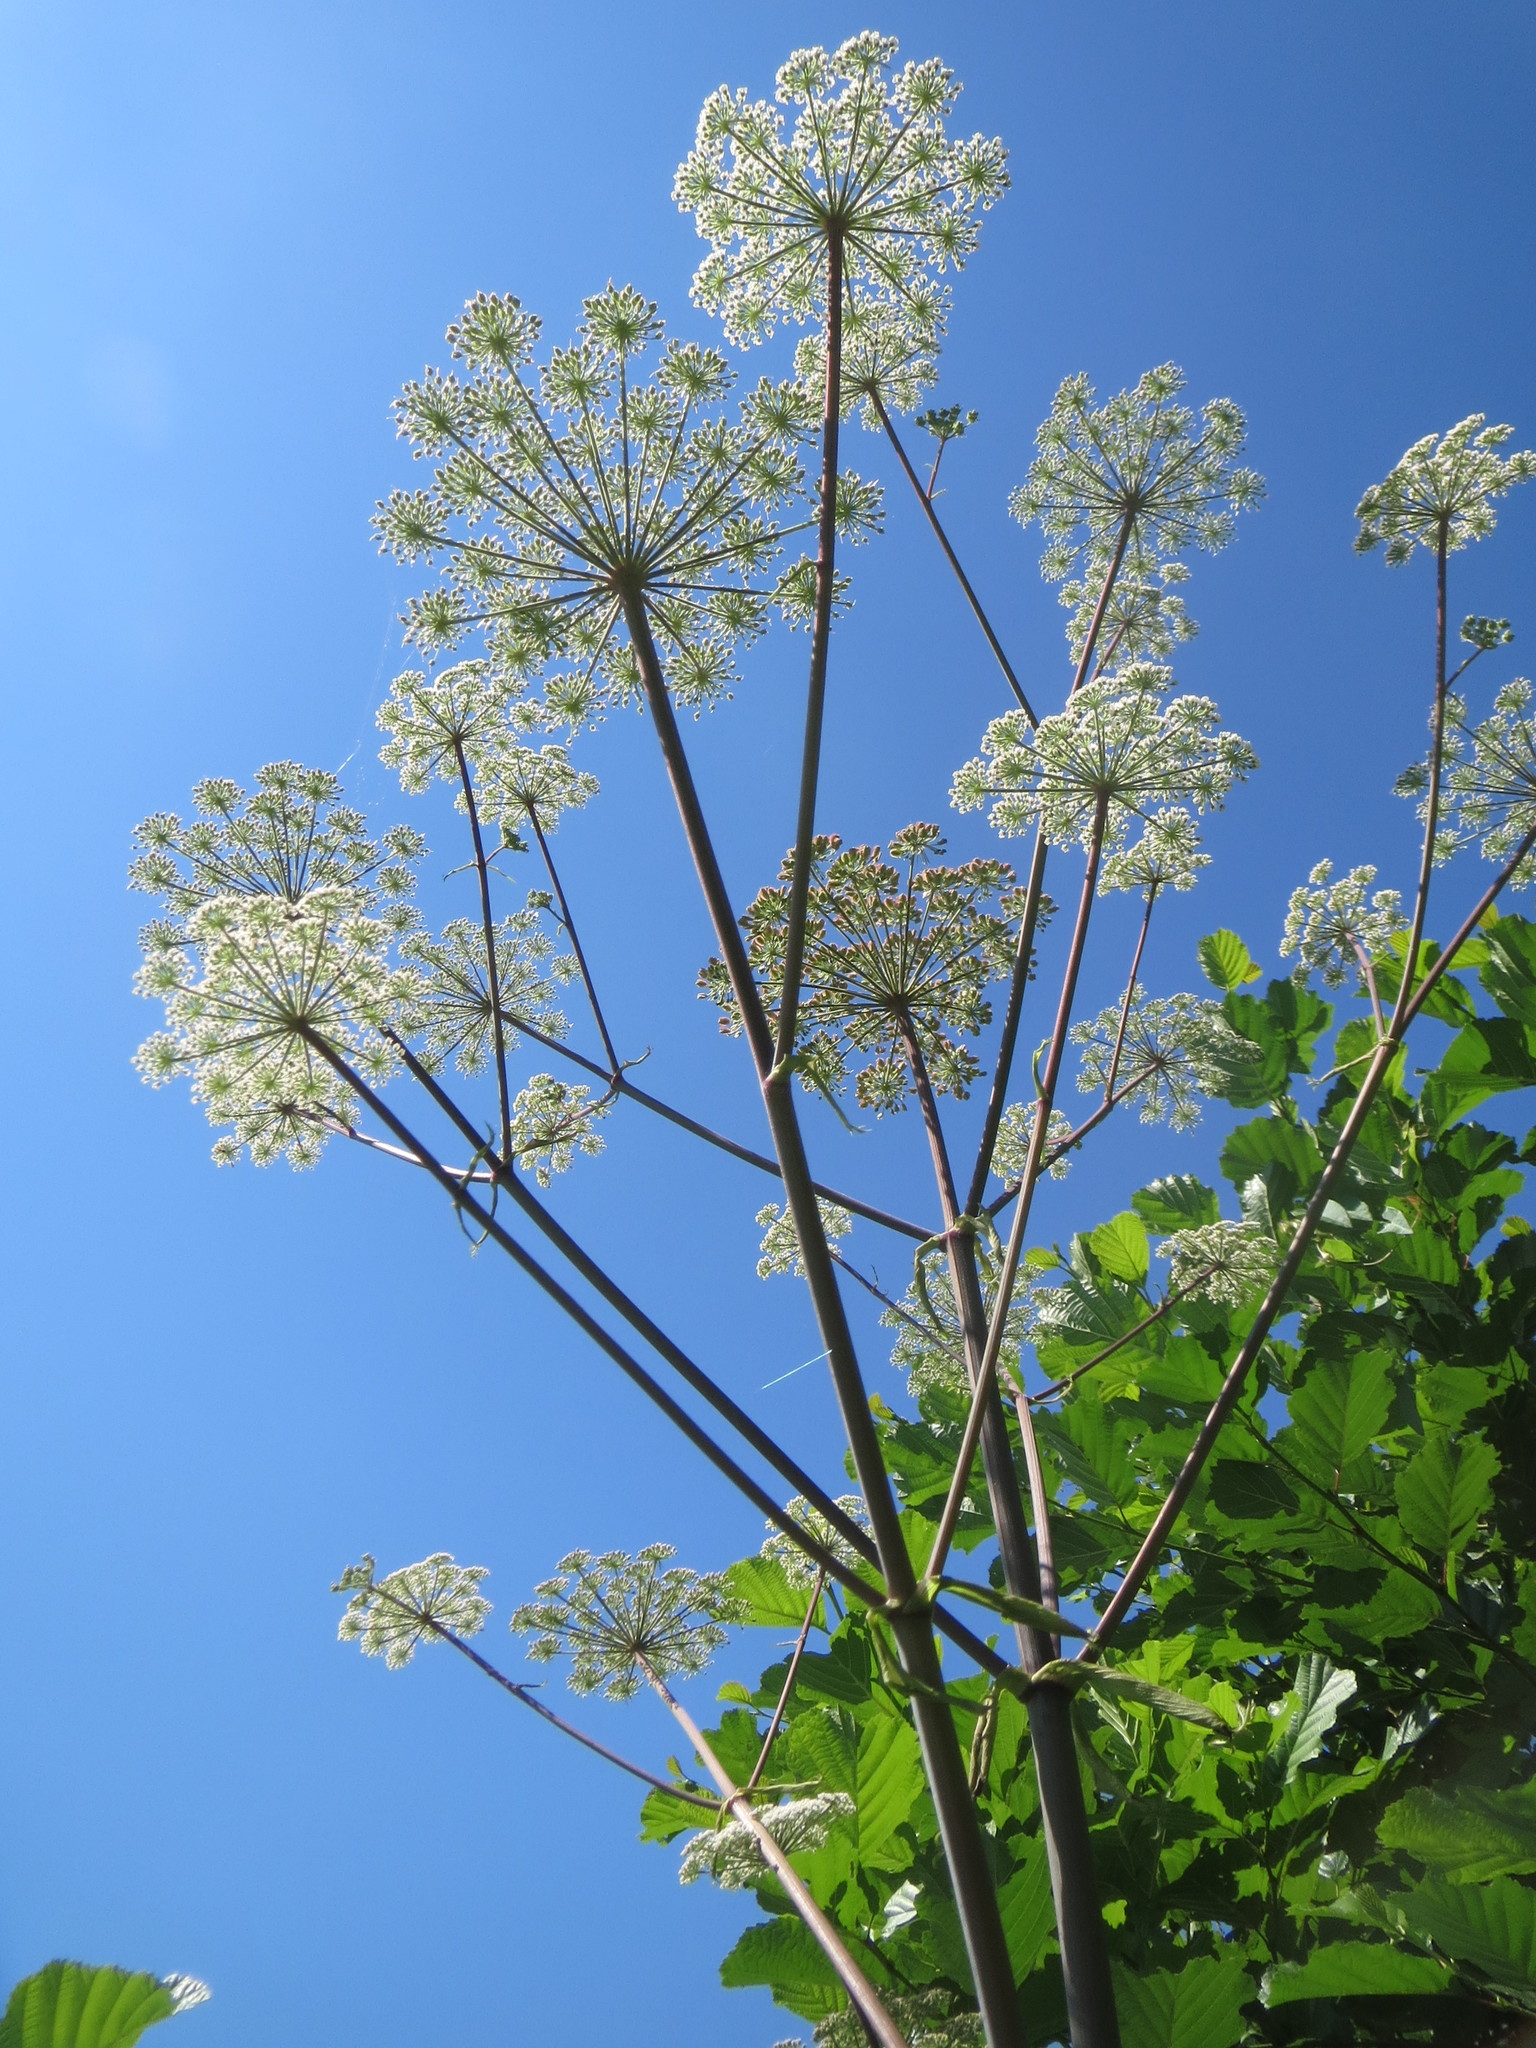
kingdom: Plantae
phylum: Tracheophyta
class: Magnoliopsida
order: Apiales
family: Apiaceae
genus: Angelica
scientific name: Angelica sylvestris
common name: Wild angelica
